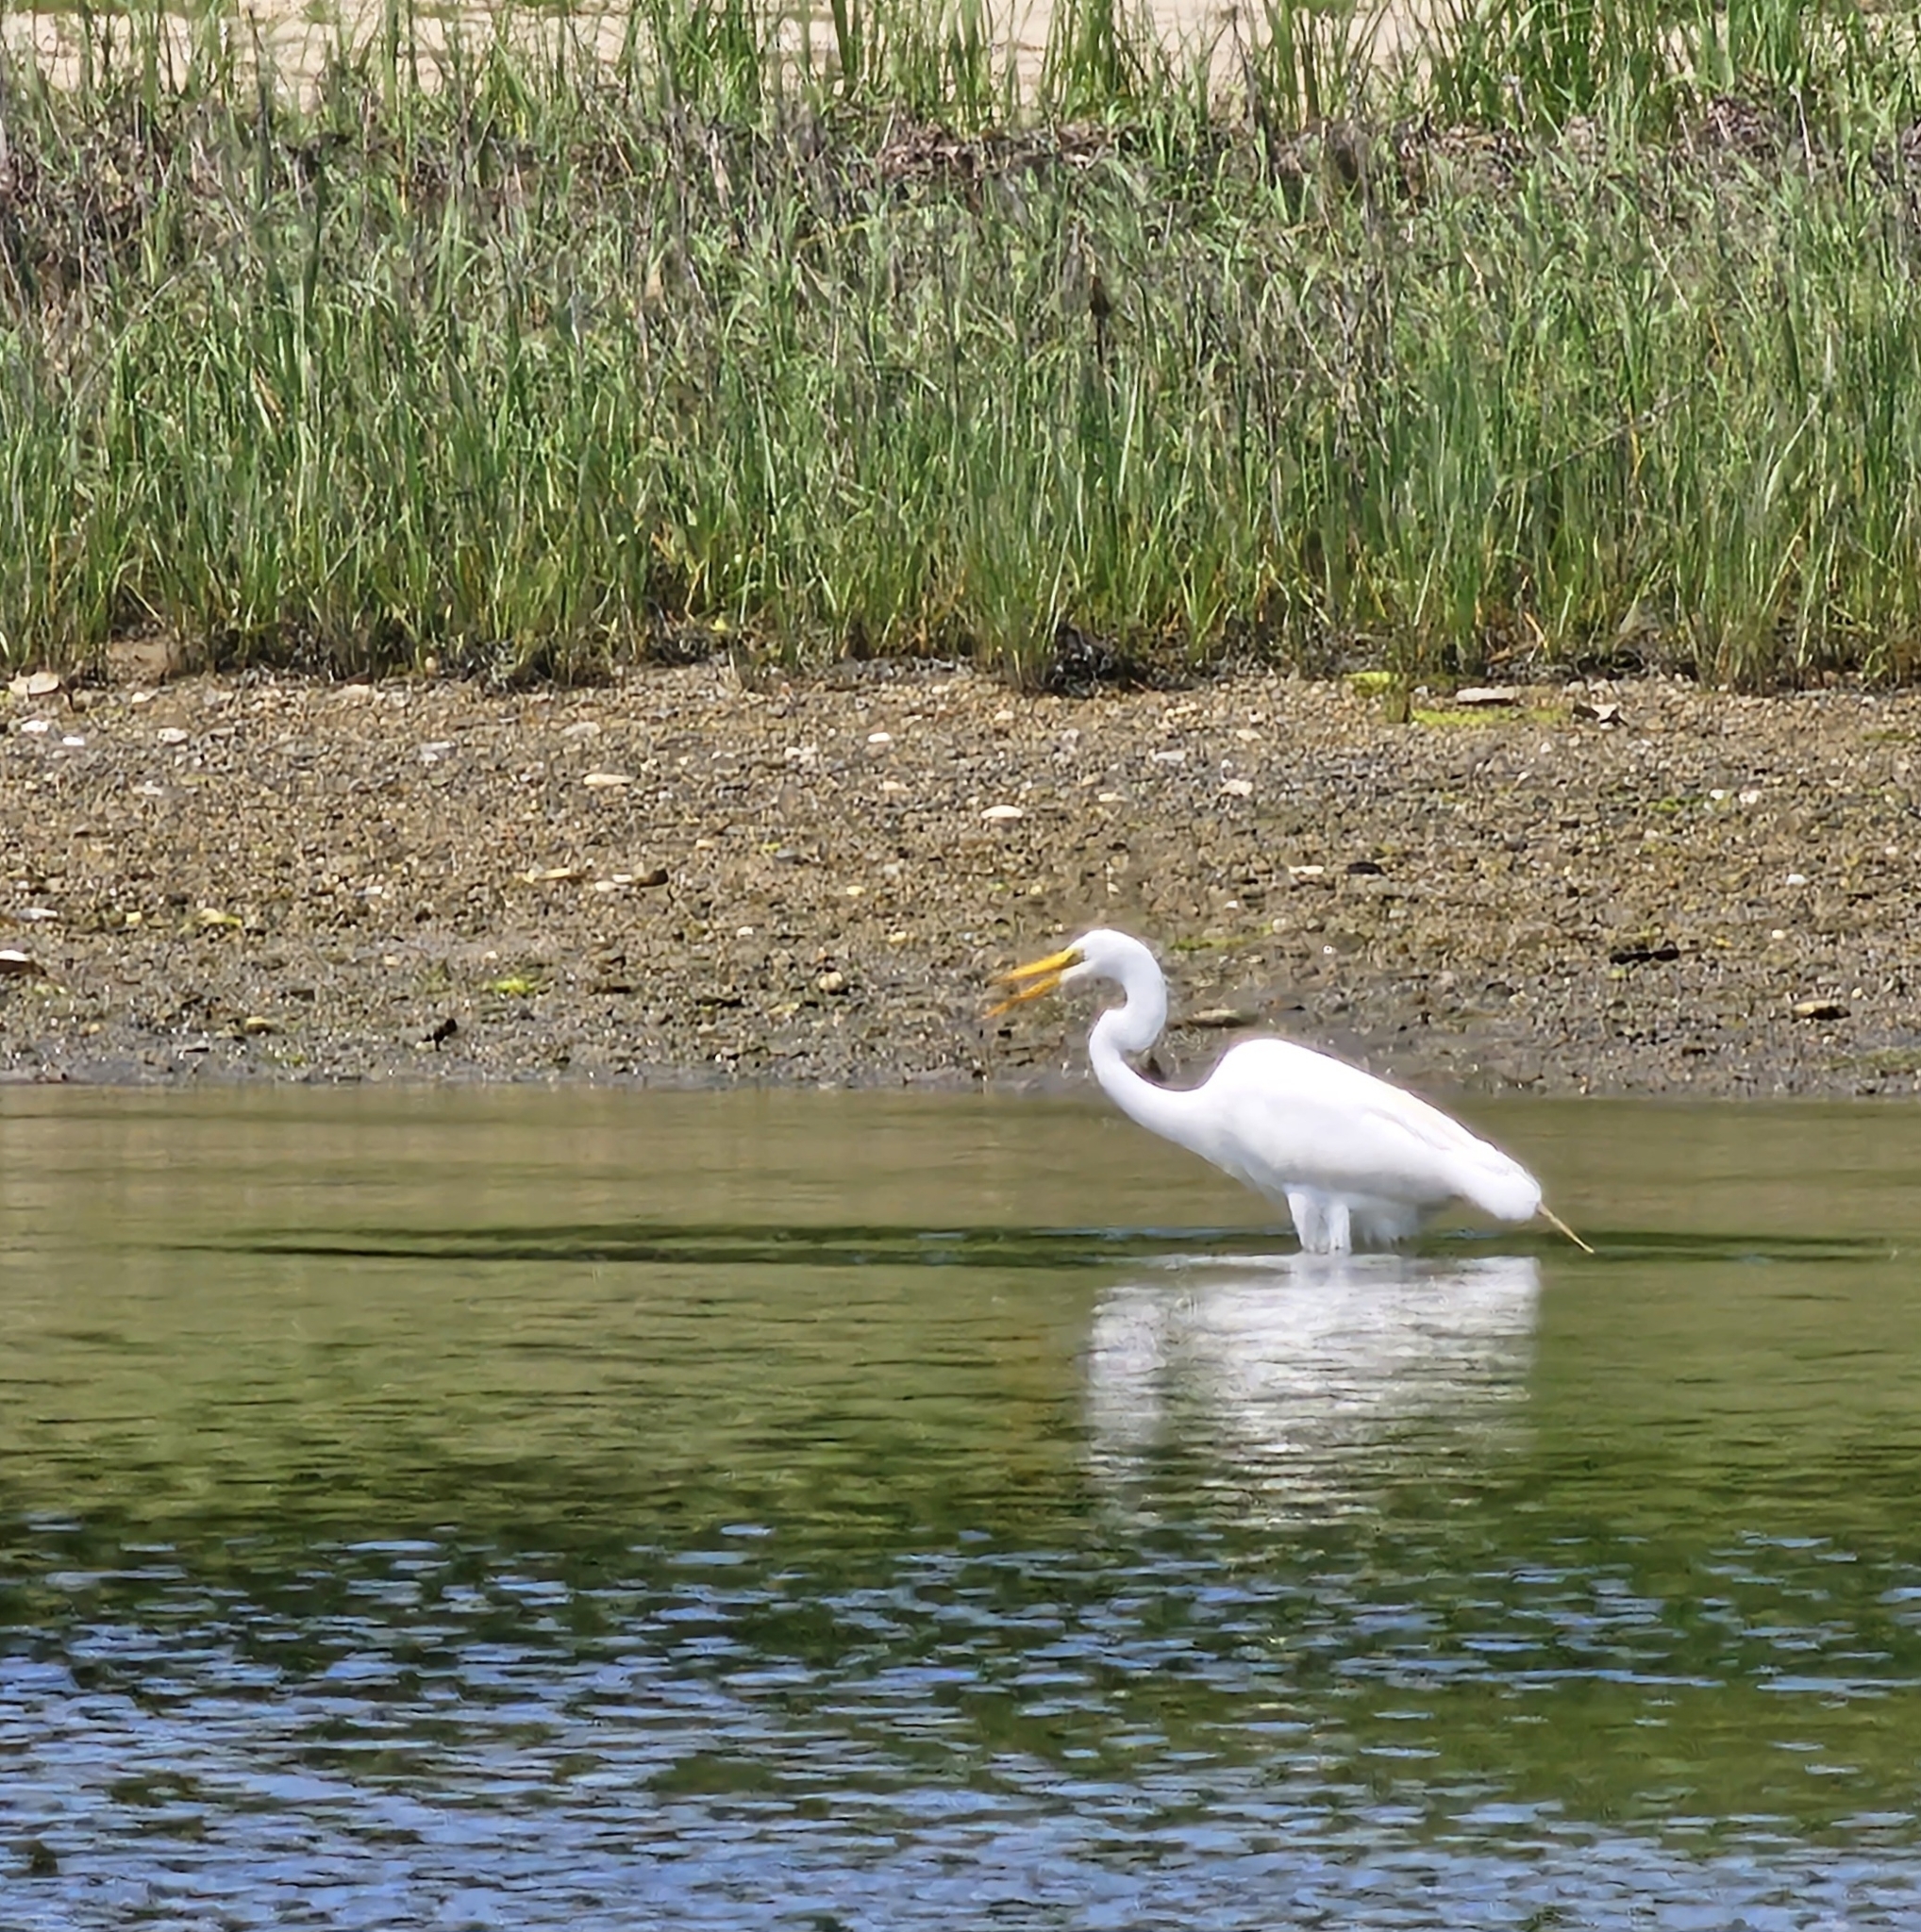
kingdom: Animalia
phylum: Chordata
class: Aves
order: Pelecaniformes
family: Ardeidae
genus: Ardea
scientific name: Ardea alba
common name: Great egret
